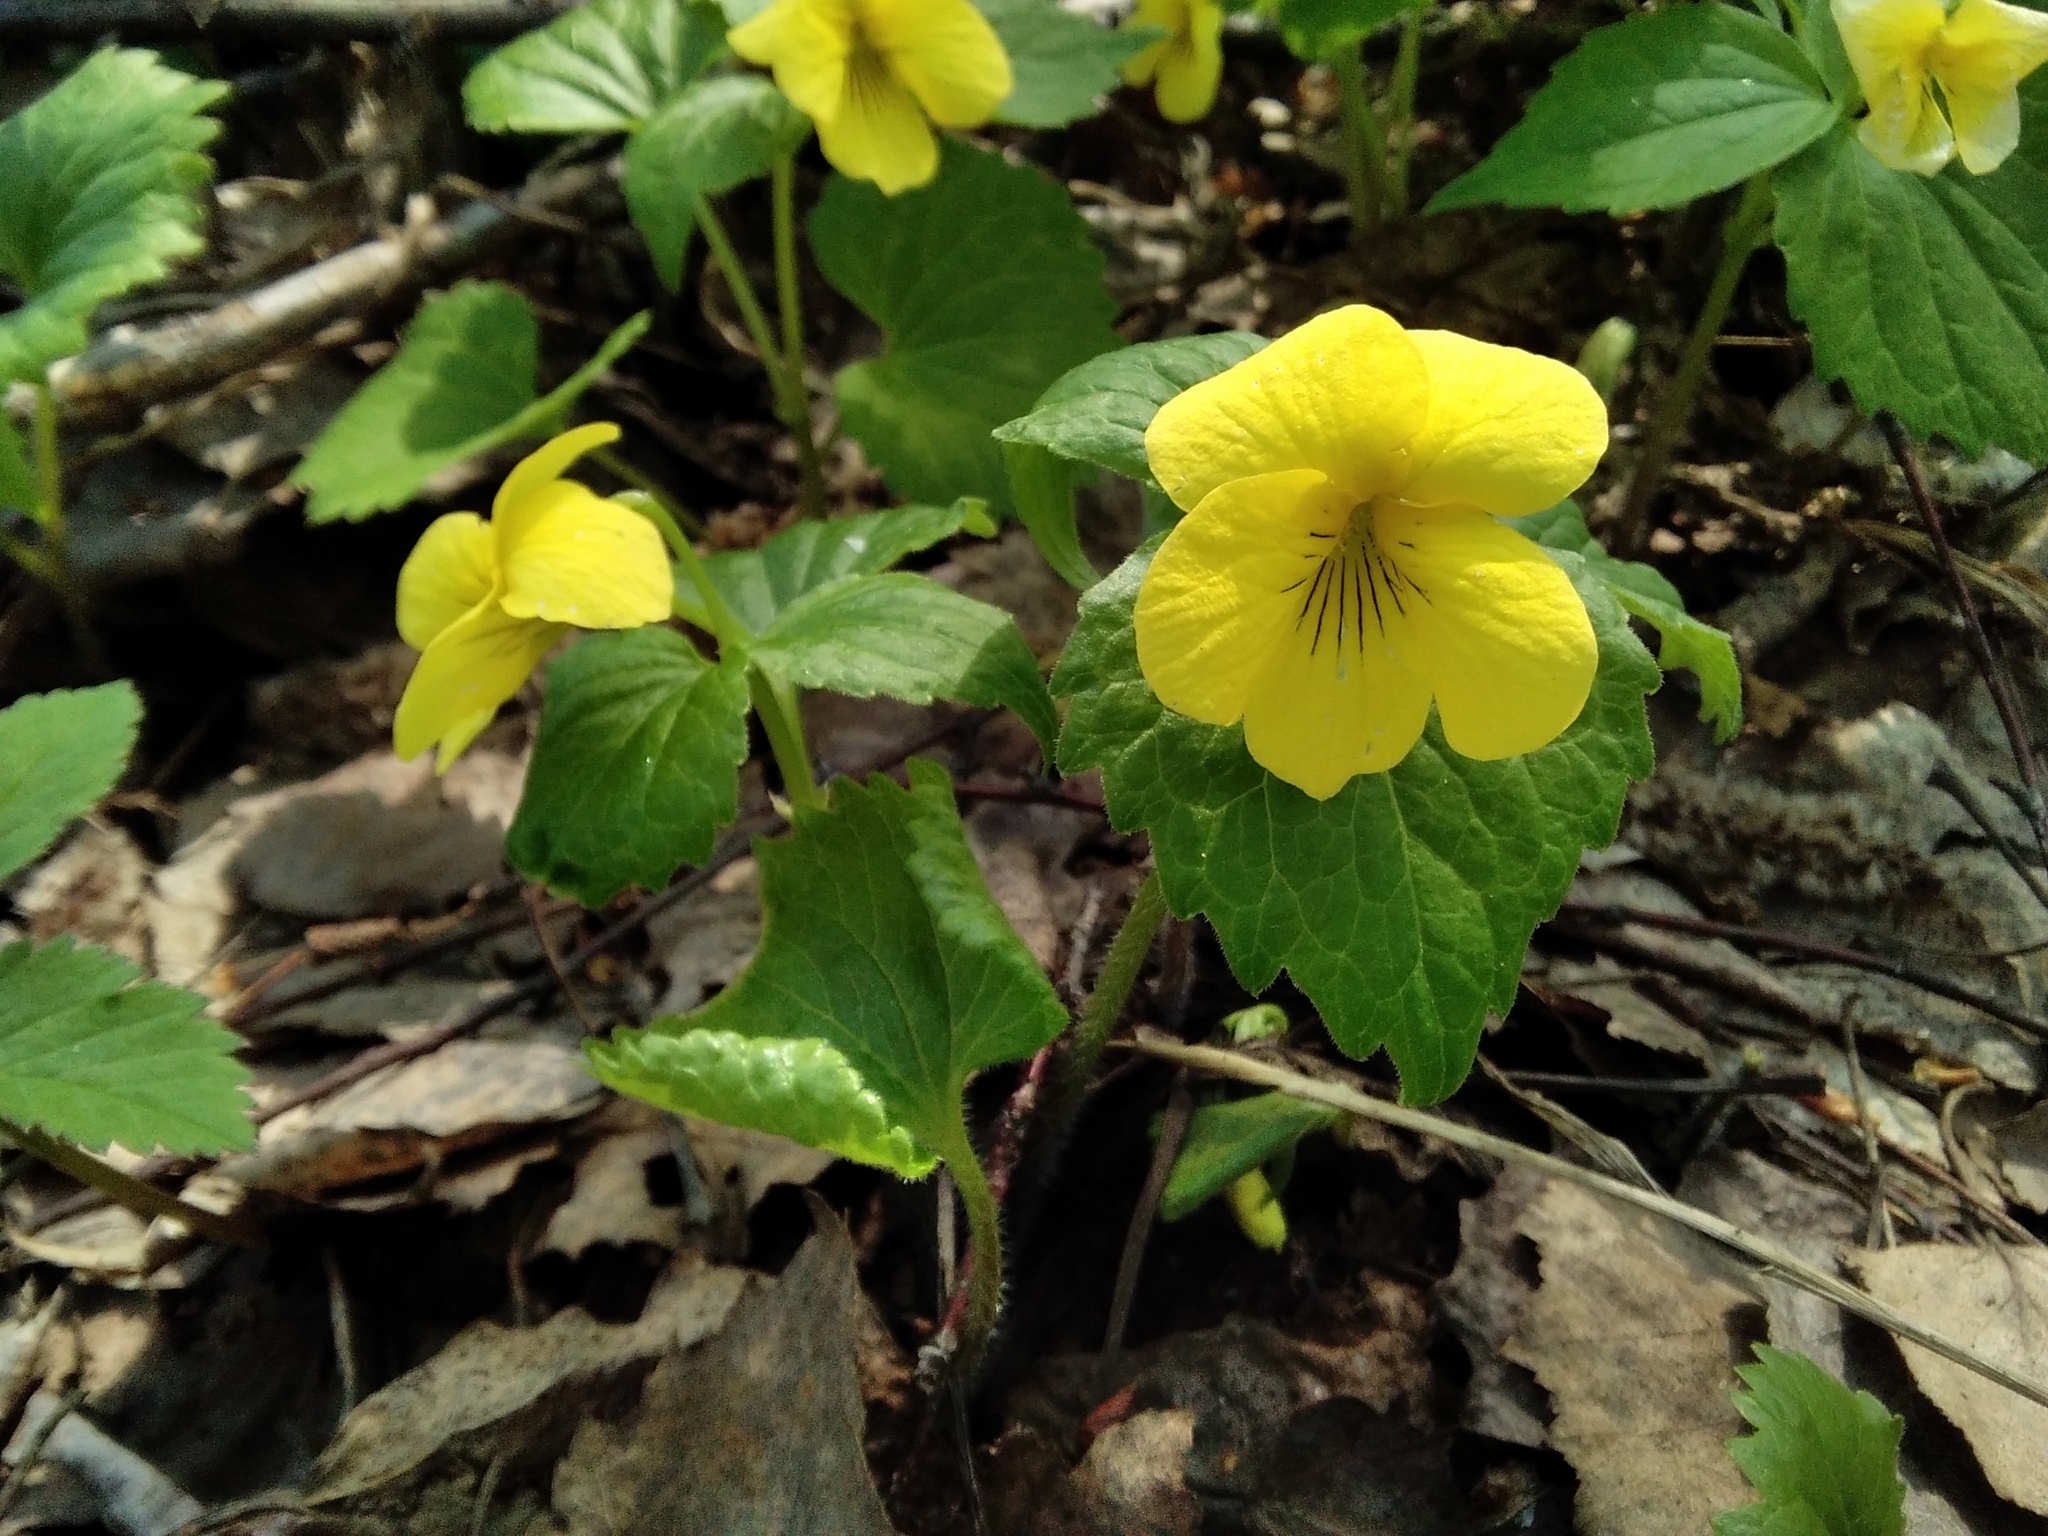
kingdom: Plantae
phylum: Tracheophyta
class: Magnoliopsida
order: Malpighiales
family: Violaceae
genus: Viola
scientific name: Viola uniflora
